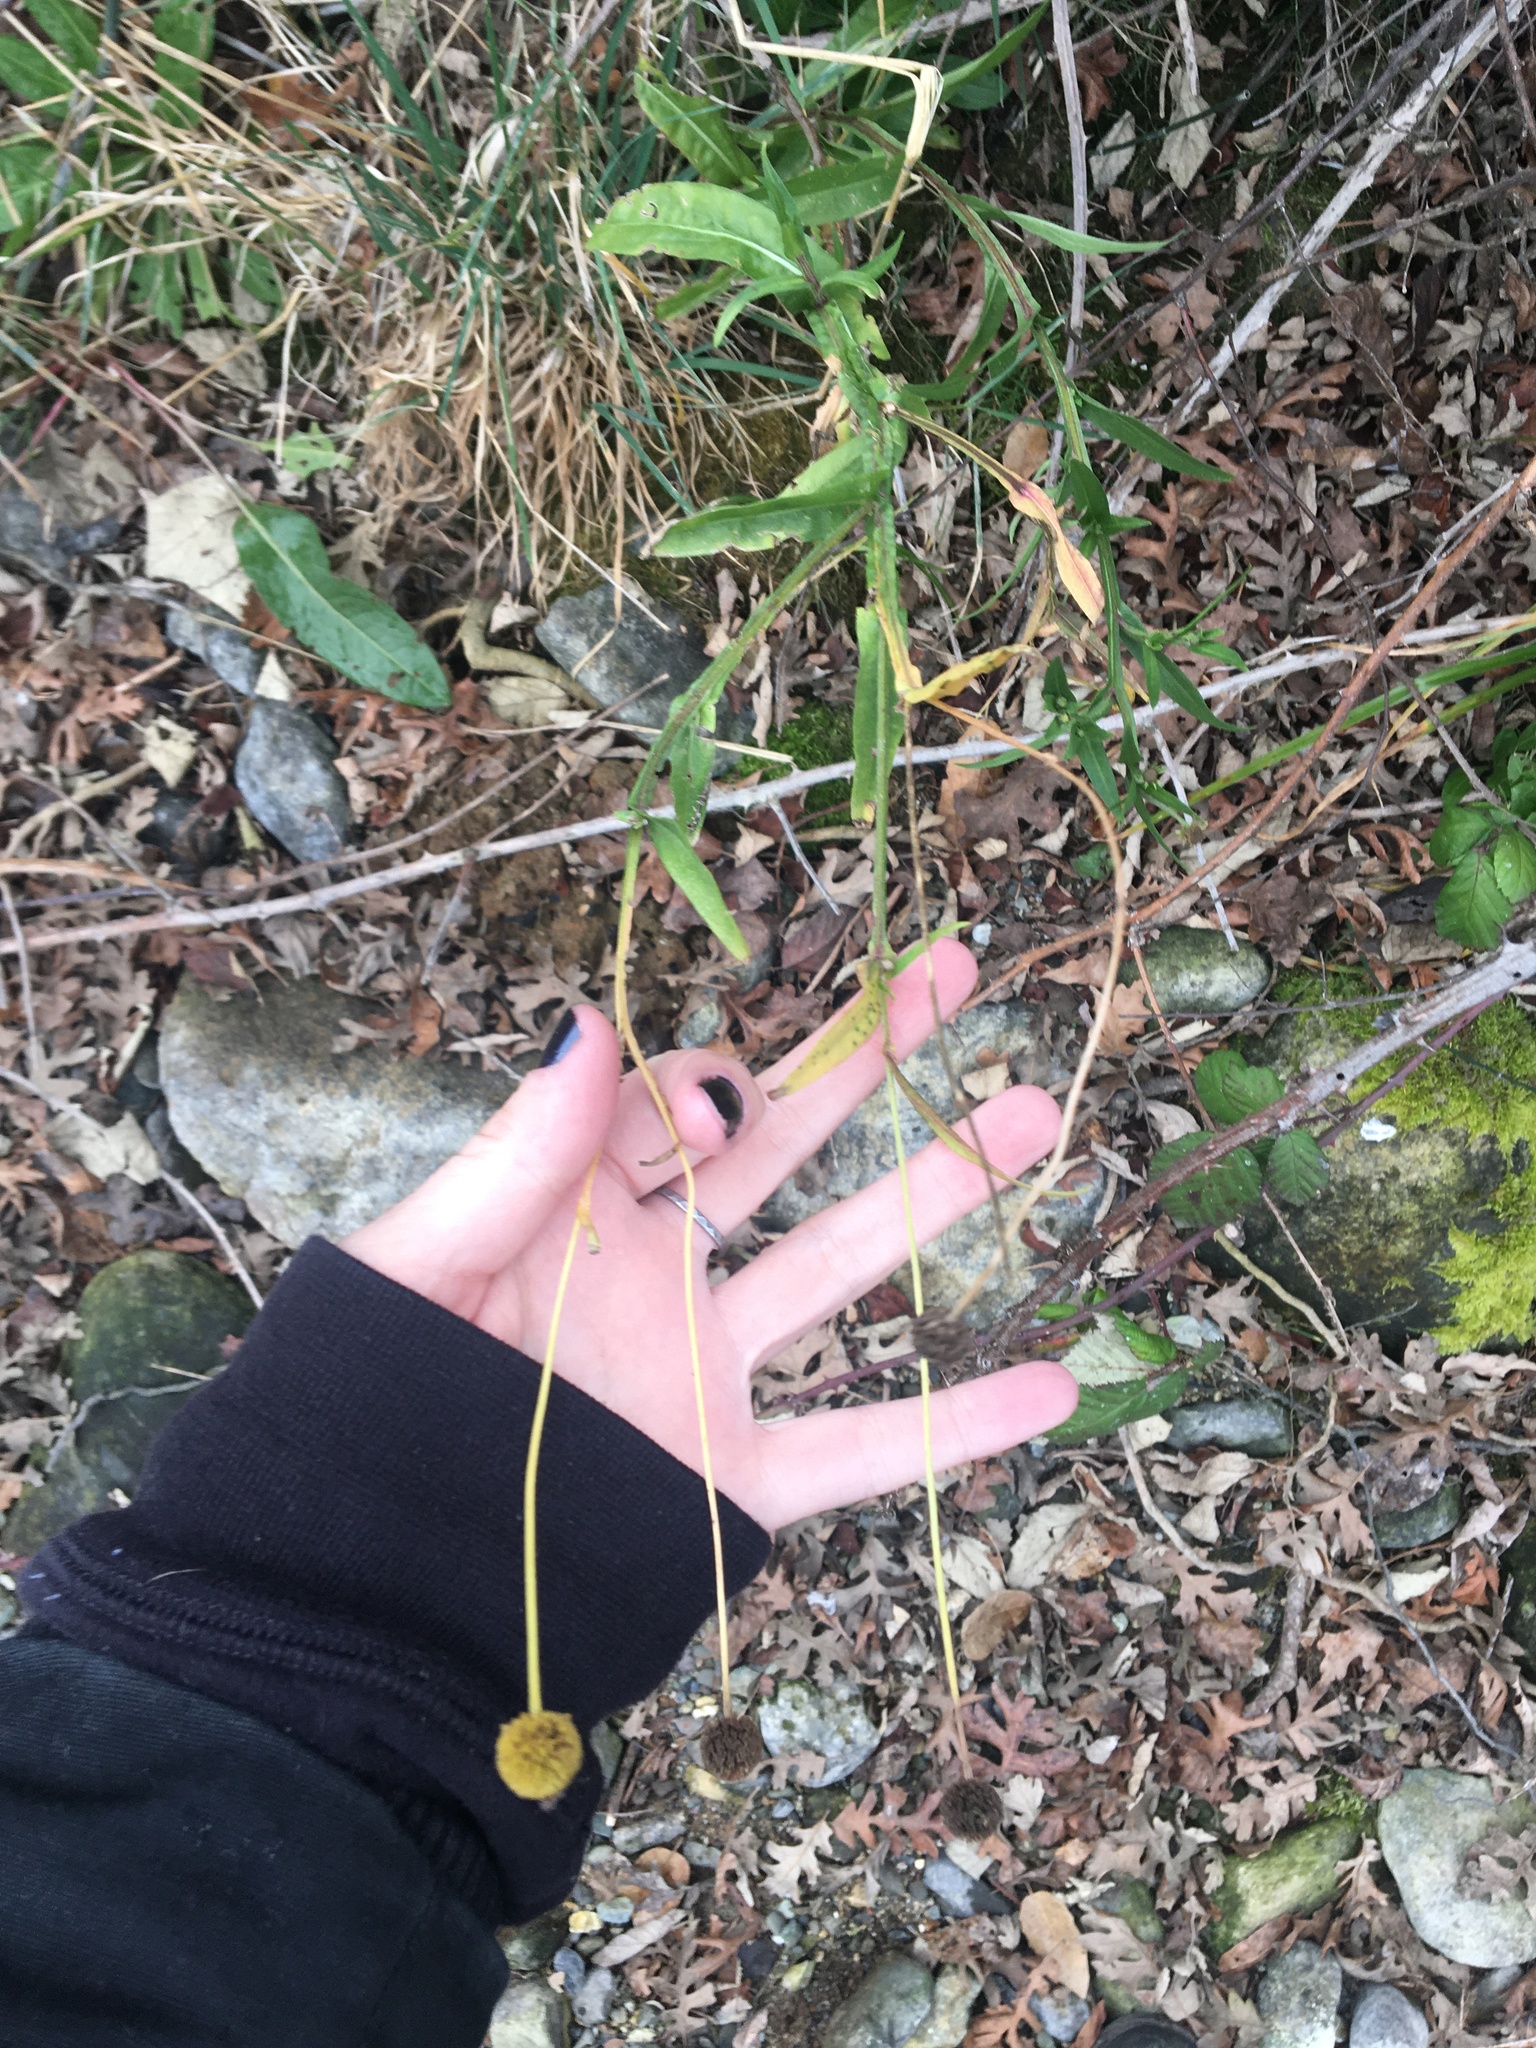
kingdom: Plantae
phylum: Tracheophyta
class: Magnoliopsida
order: Asterales
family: Asteraceae
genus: Helenium
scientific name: Helenium puberulum
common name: Sneezewort
